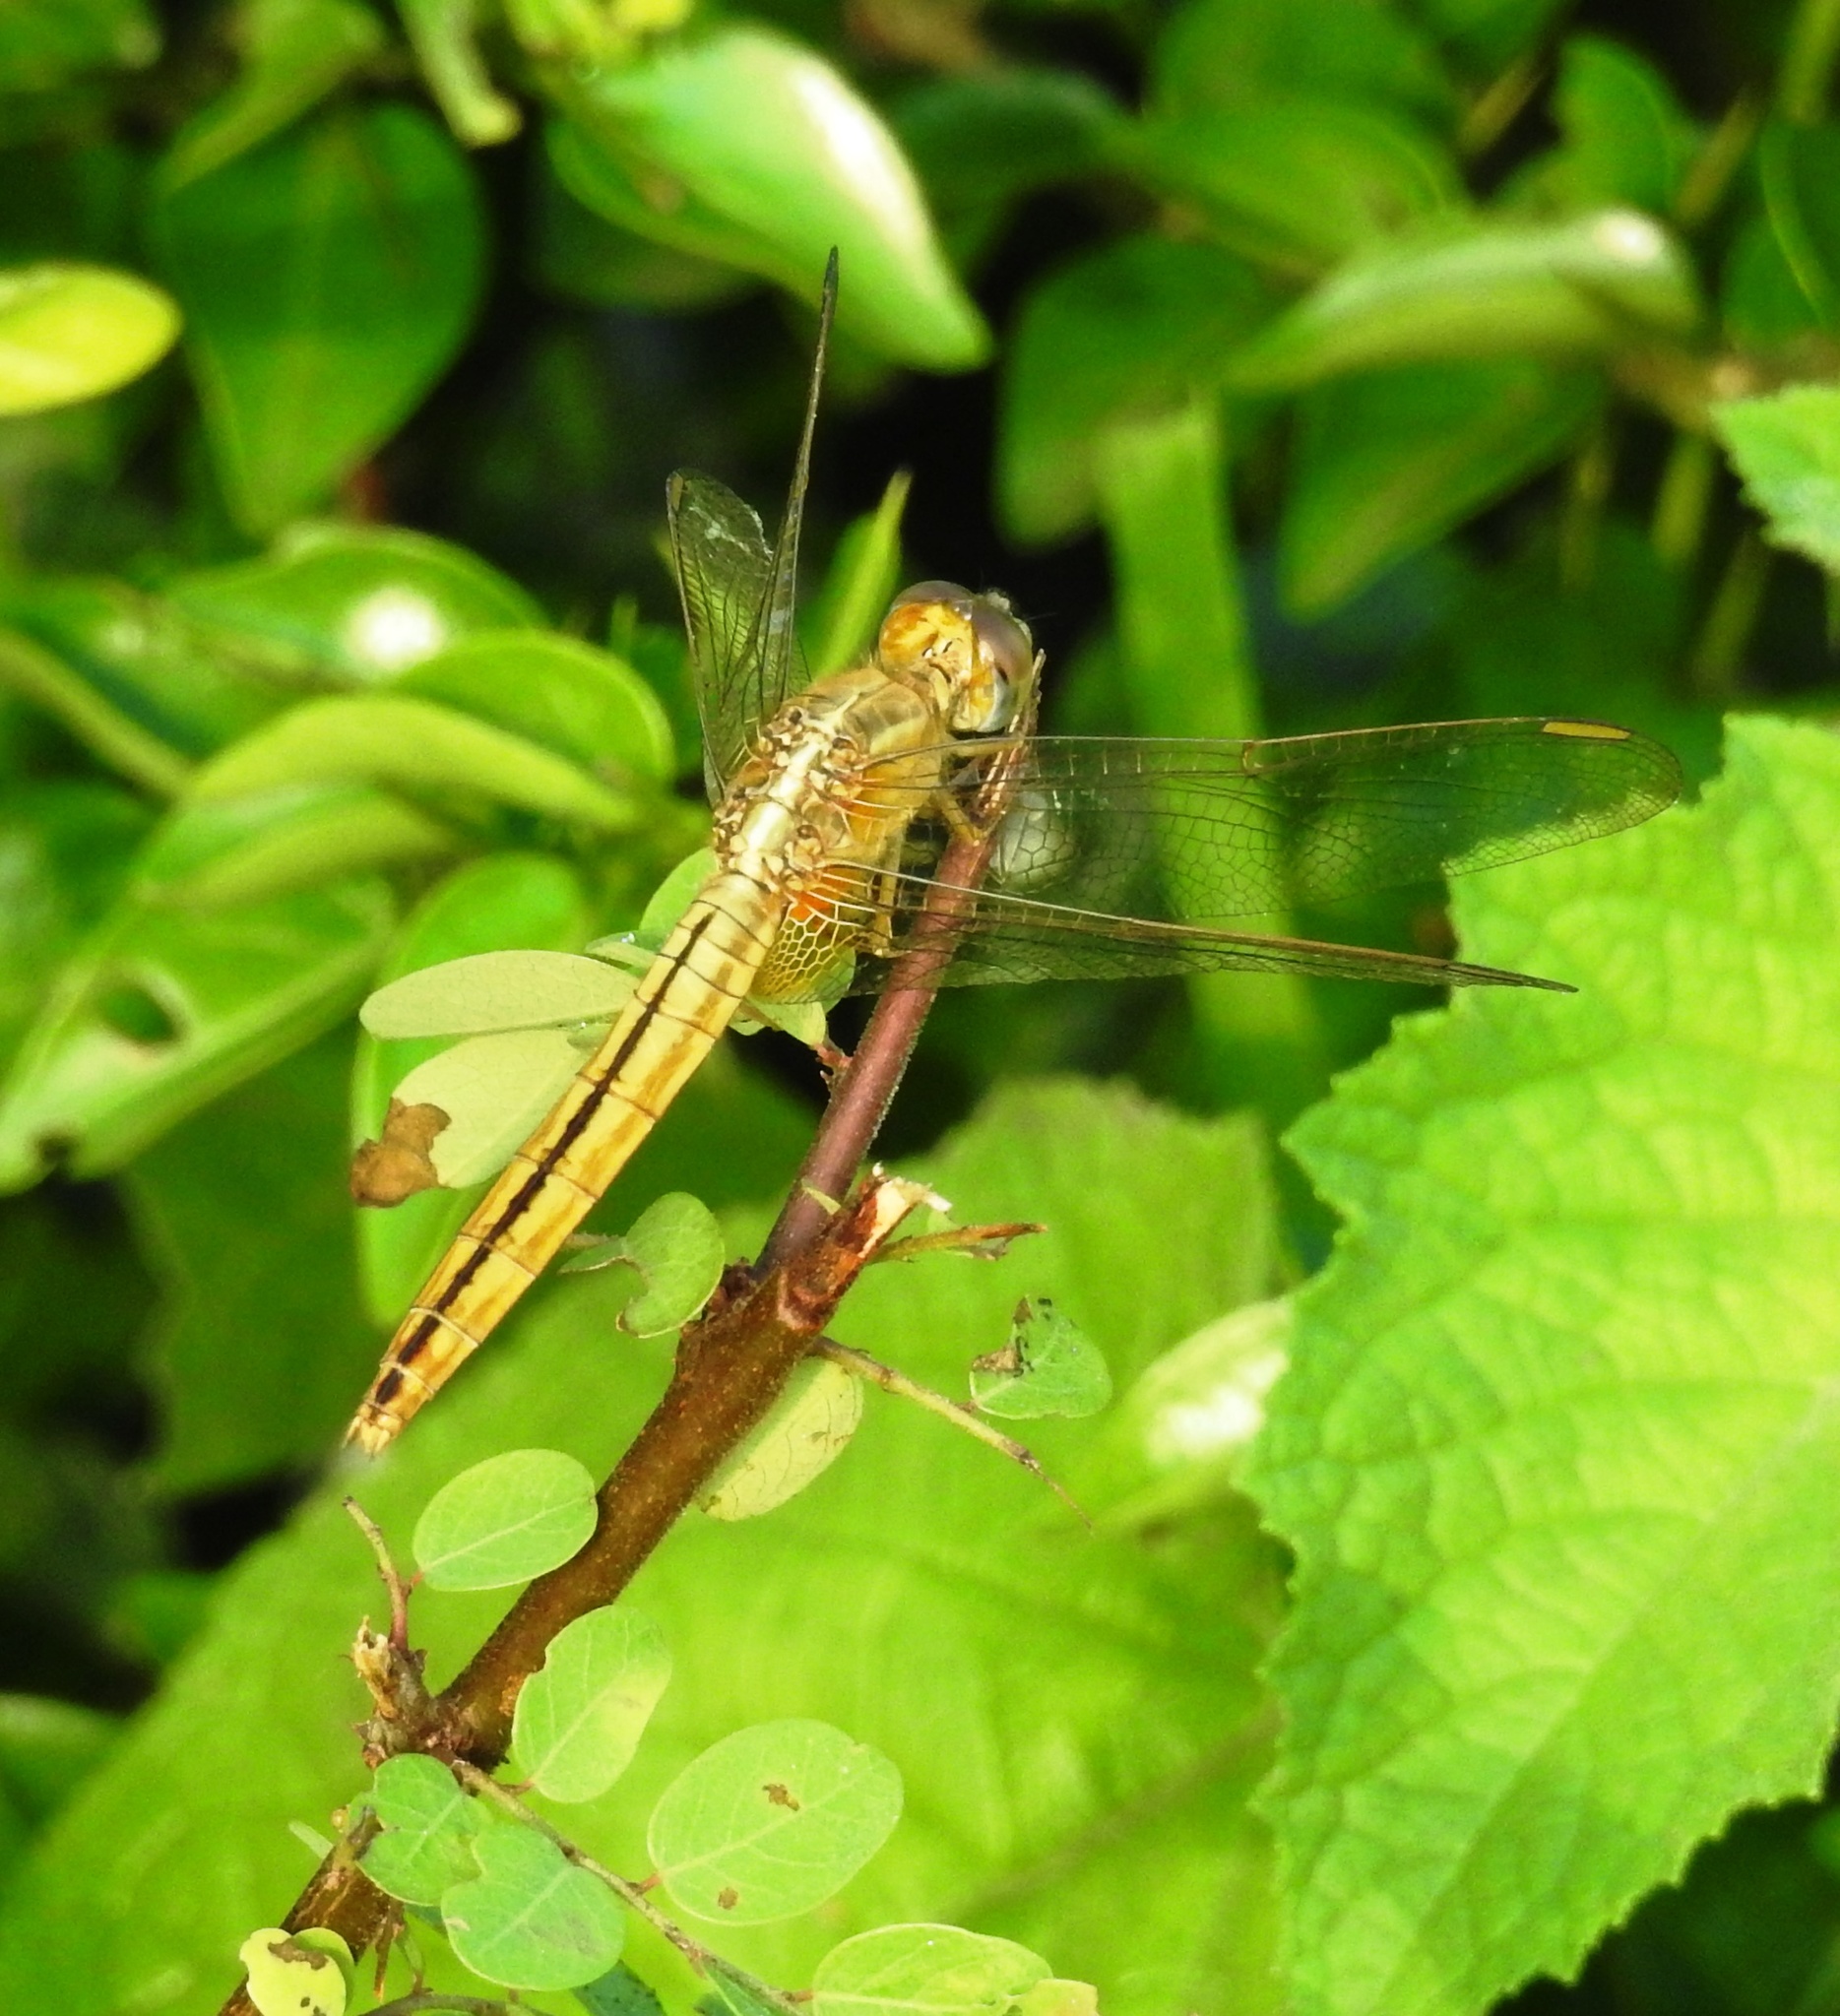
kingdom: Animalia
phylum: Arthropoda
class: Insecta
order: Odonata
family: Libellulidae
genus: Crocothemis
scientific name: Crocothemis servilia
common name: Scarlet skimmer
